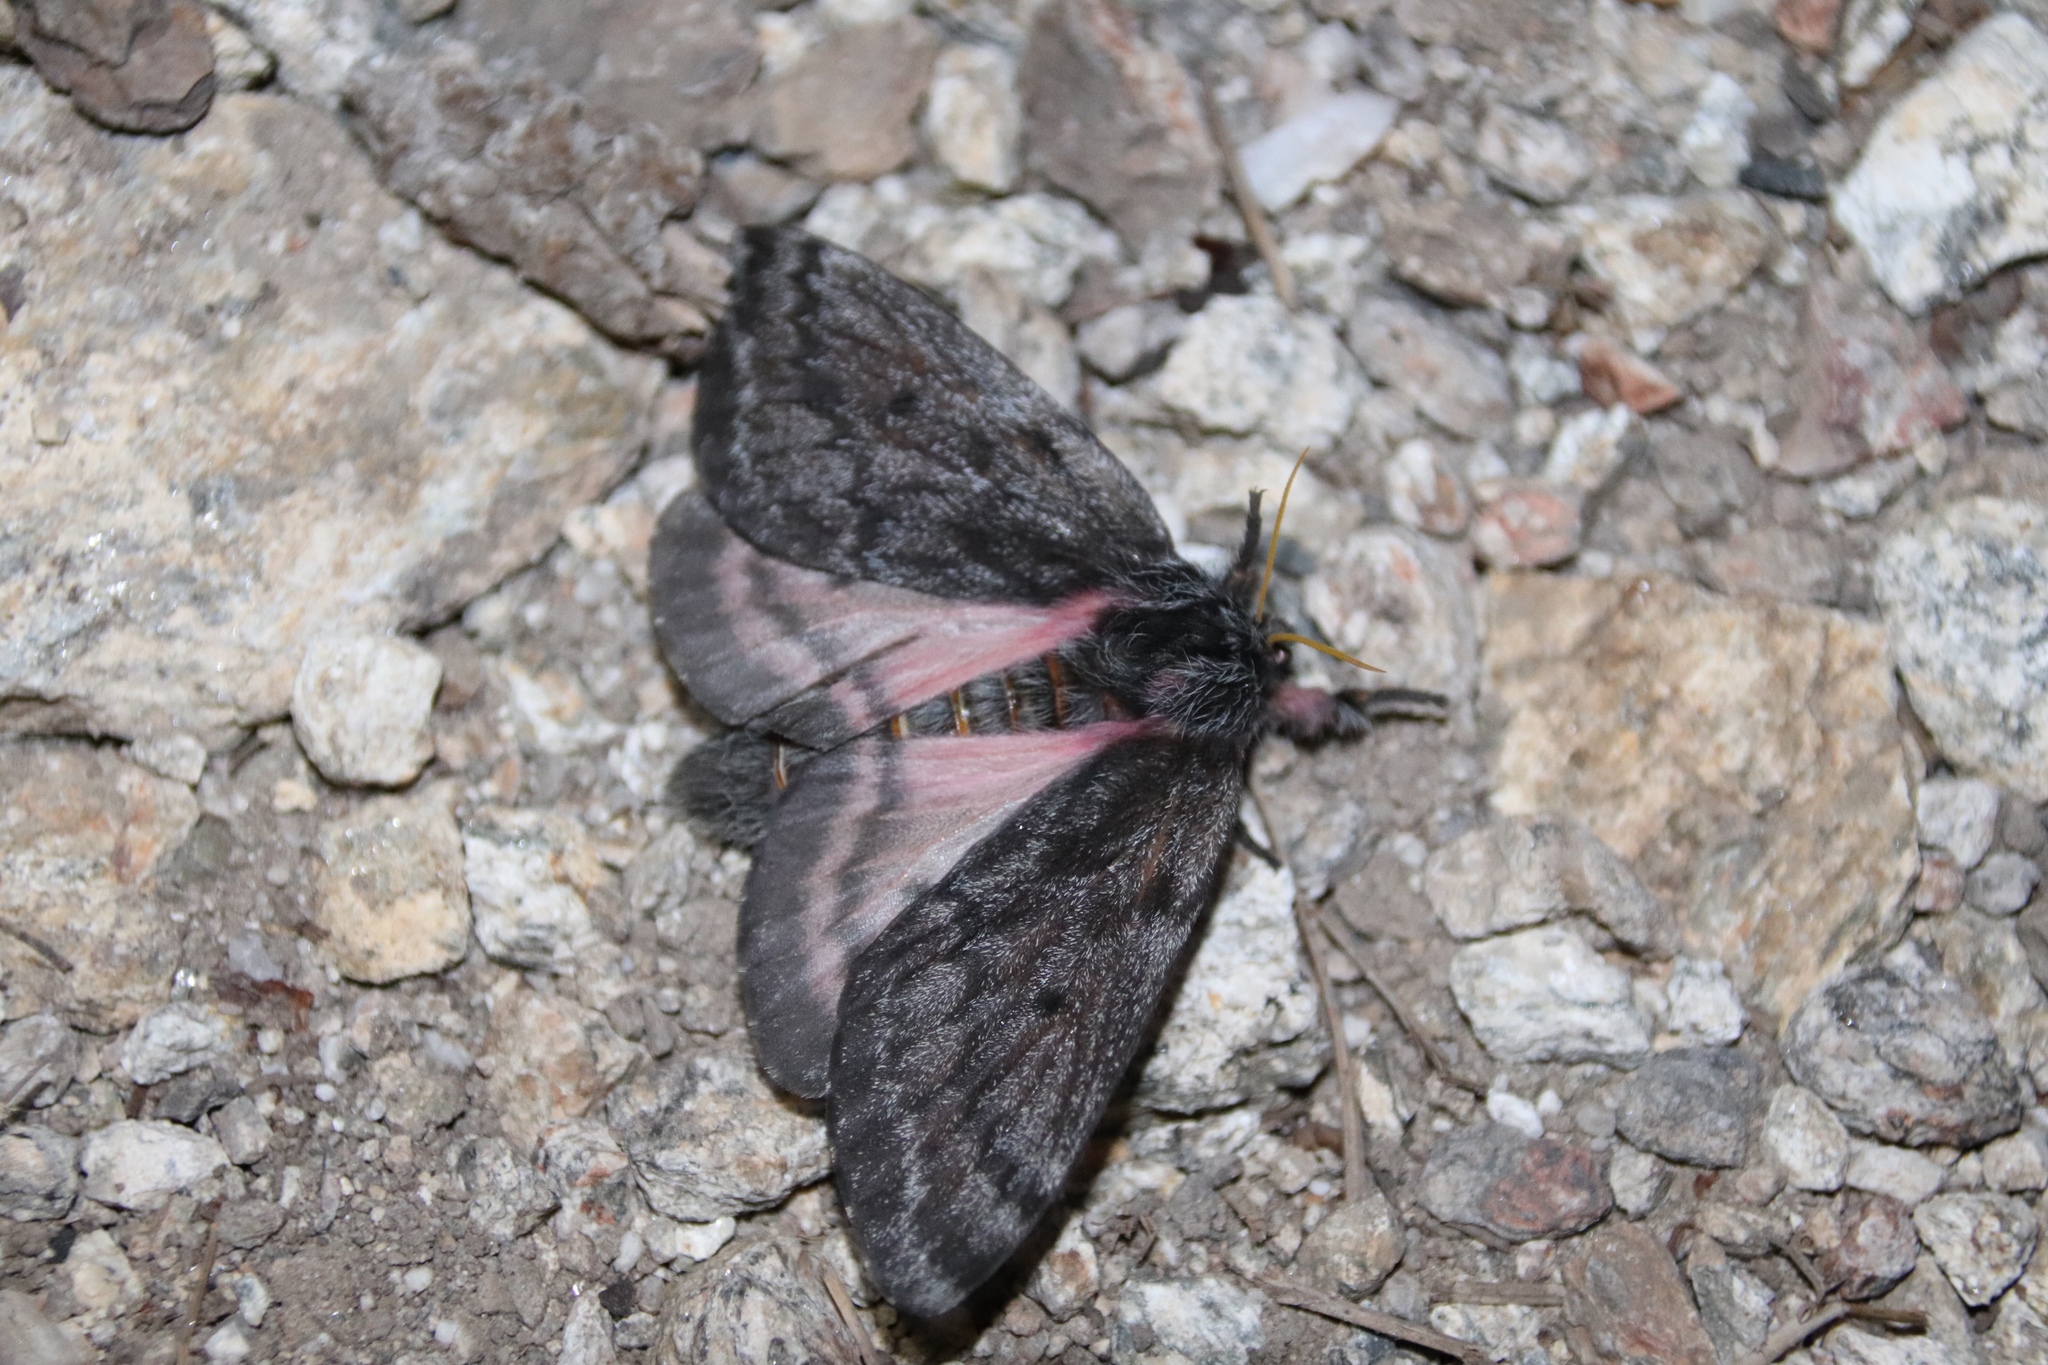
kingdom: Animalia
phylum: Arthropoda
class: Insecta
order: Lepidoptera
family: Saturniidae
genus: Coloradia
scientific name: Coloradia pandora
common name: Pandora pinemoth
